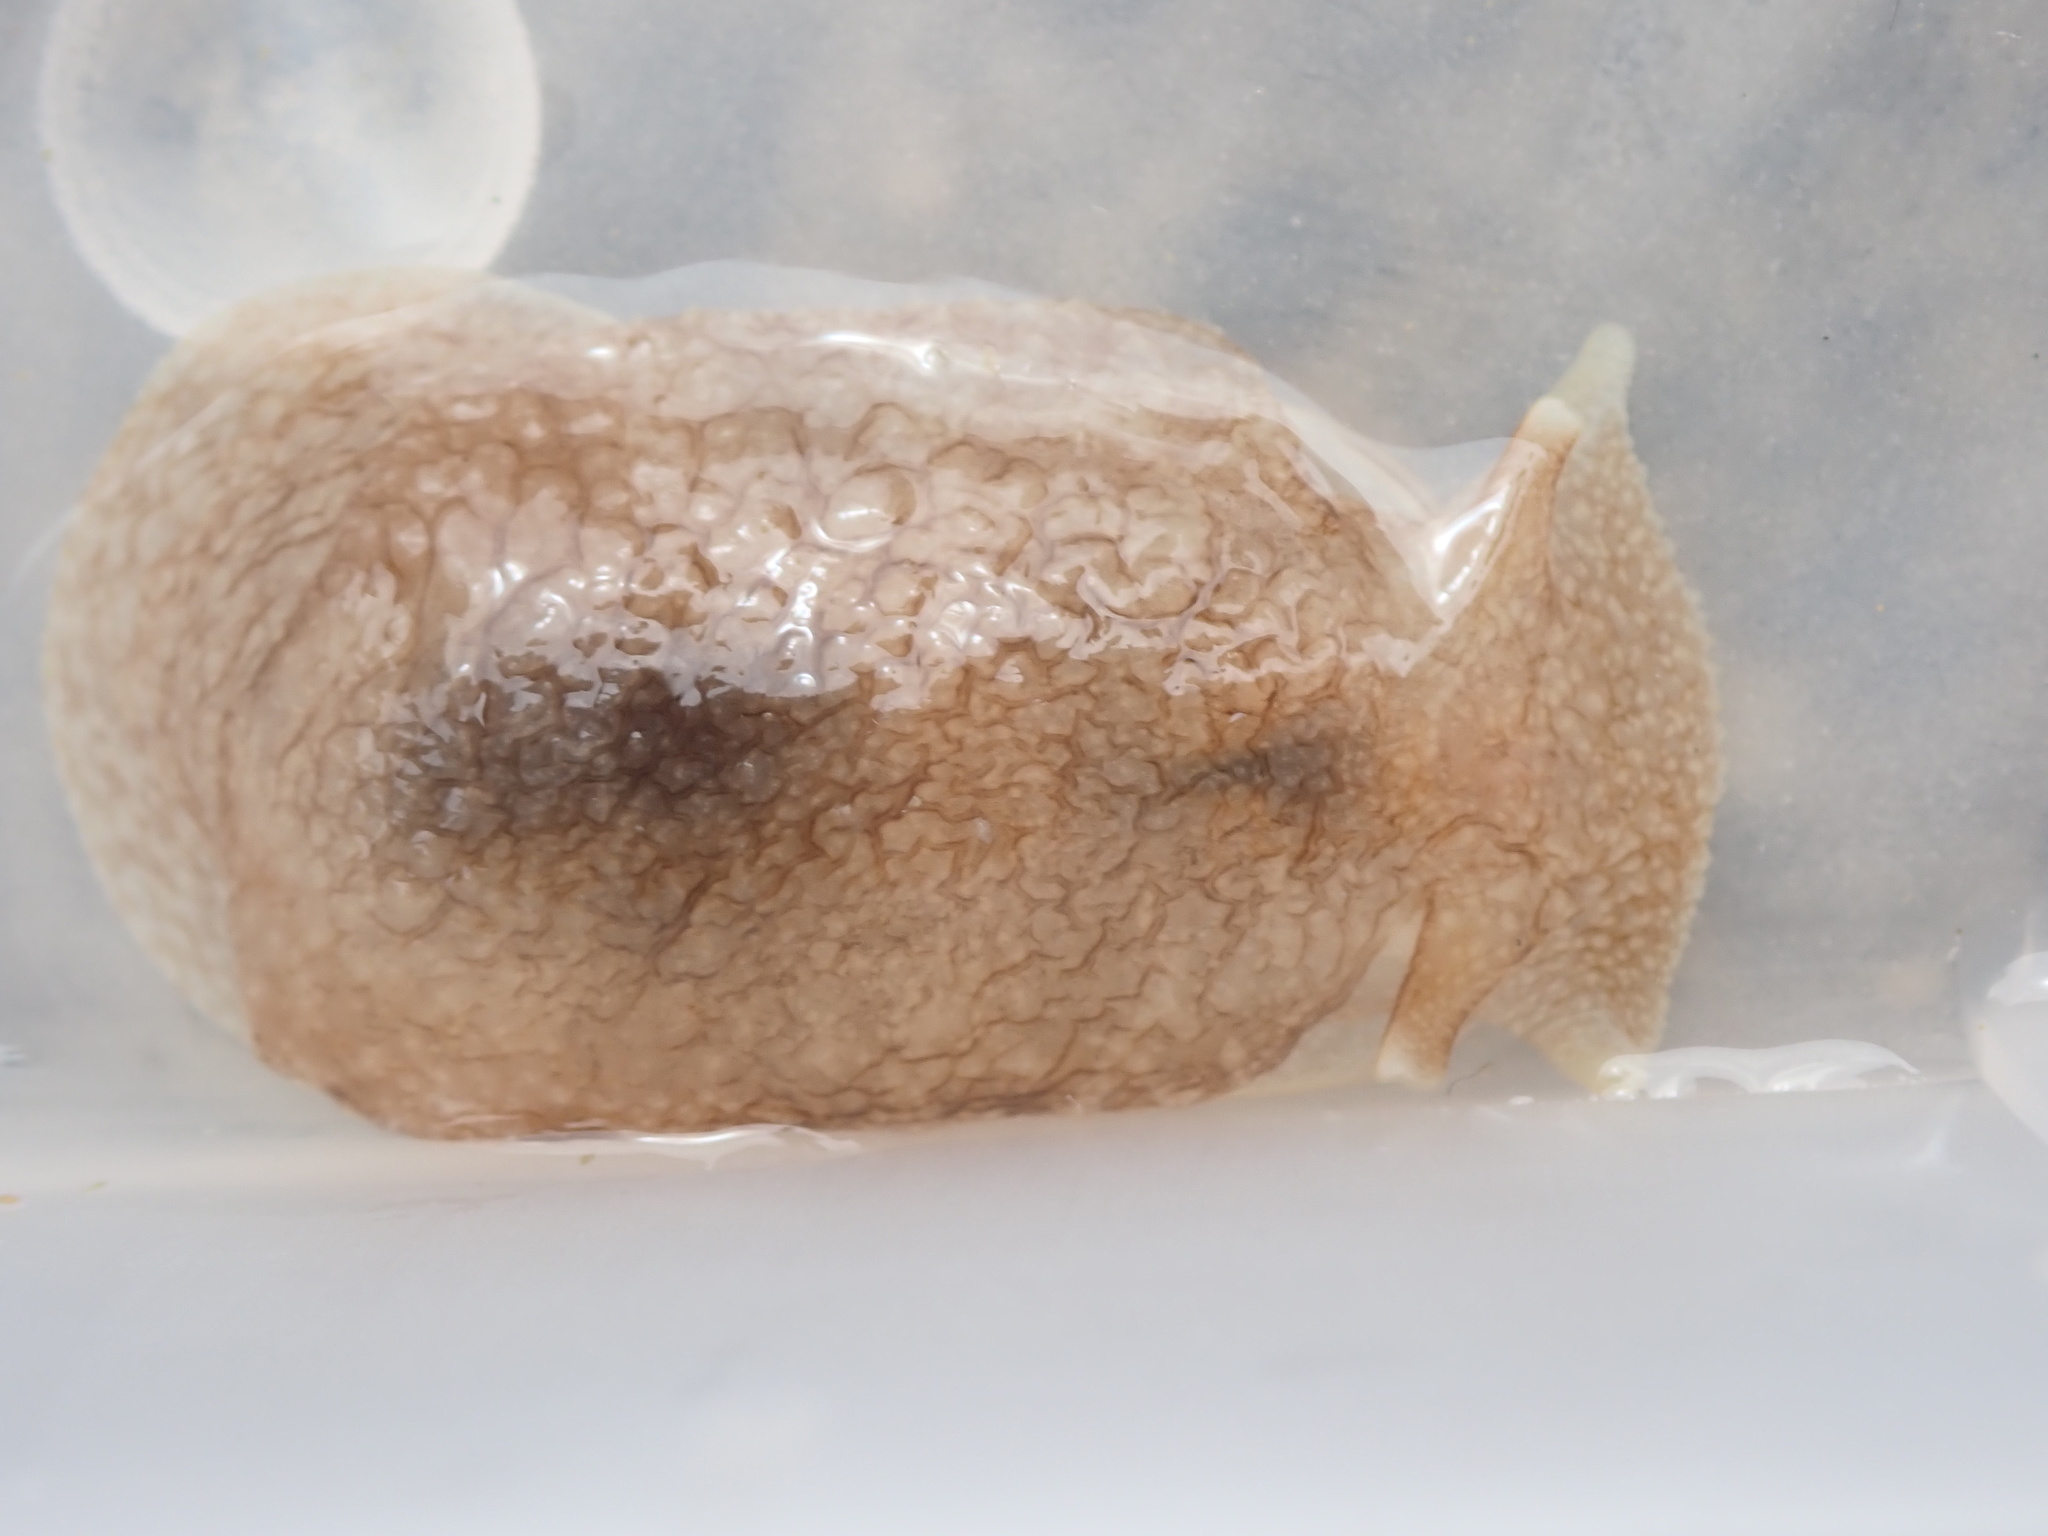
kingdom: Animalia
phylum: Mollusca
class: Gastropoda
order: Pleurobranchida
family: Pleurobranchaeidae
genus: Pleurobranchaea
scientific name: Pleurobranchaea maculata
